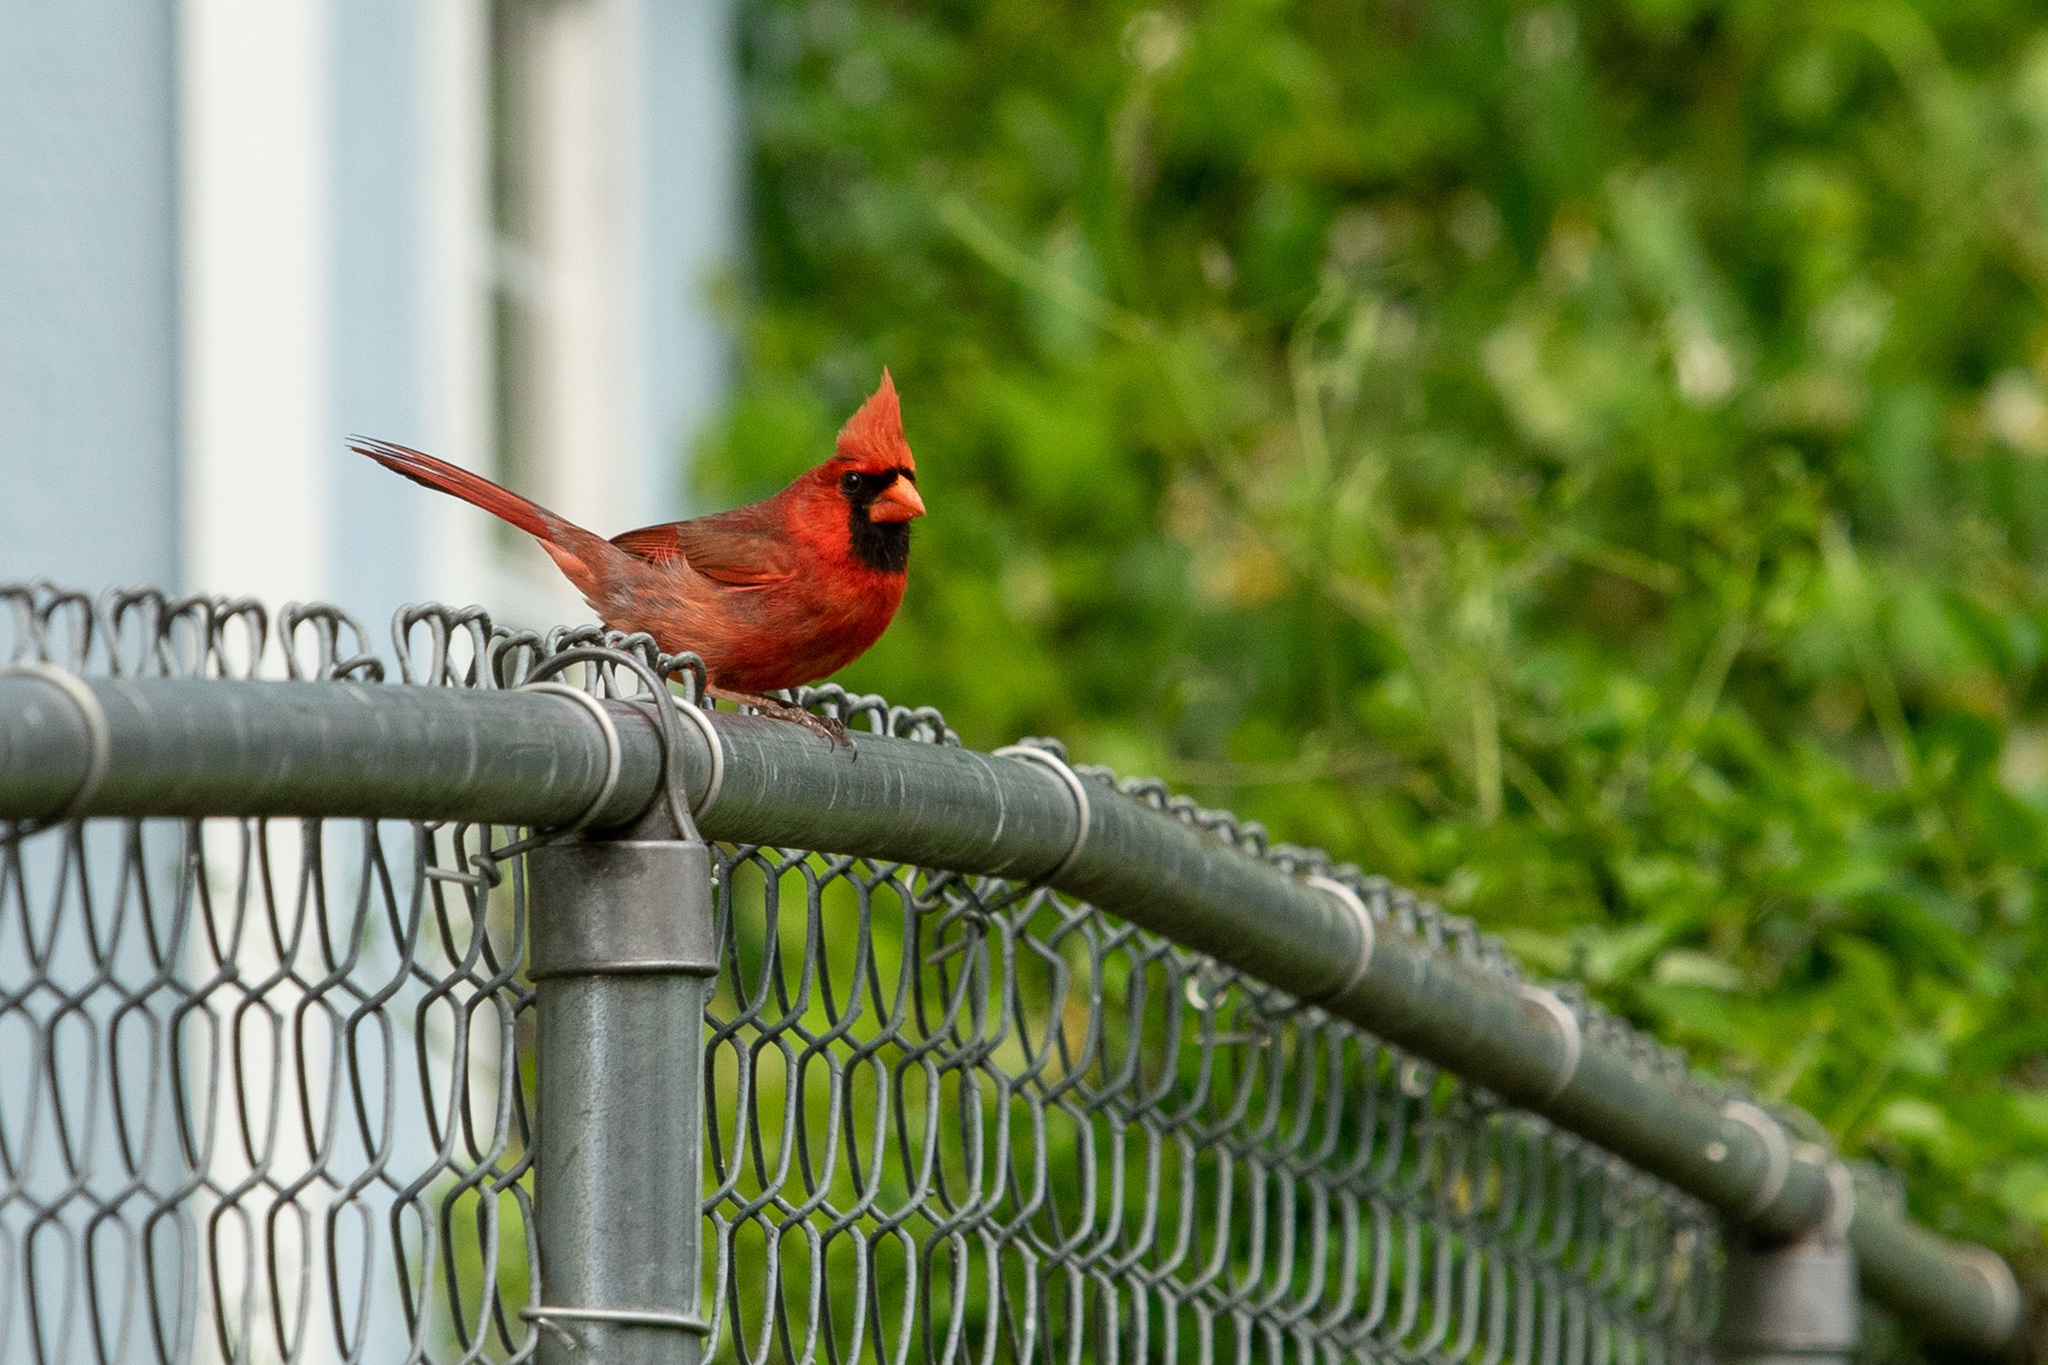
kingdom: Animalia
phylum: Chordata
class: Aves
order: Passeriformes
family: Cardinalidae
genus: Cardinalis
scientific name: Cardinalis cardinalis
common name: Northern cardinal
